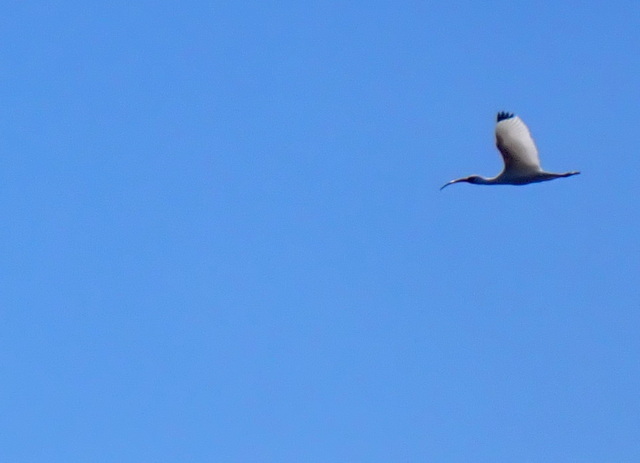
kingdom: Animalia
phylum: Chordata
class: Aves
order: Pelecaniformes
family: Threskiornithidae
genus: Eudocimus
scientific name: Eudocimus albus
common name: White ibis
